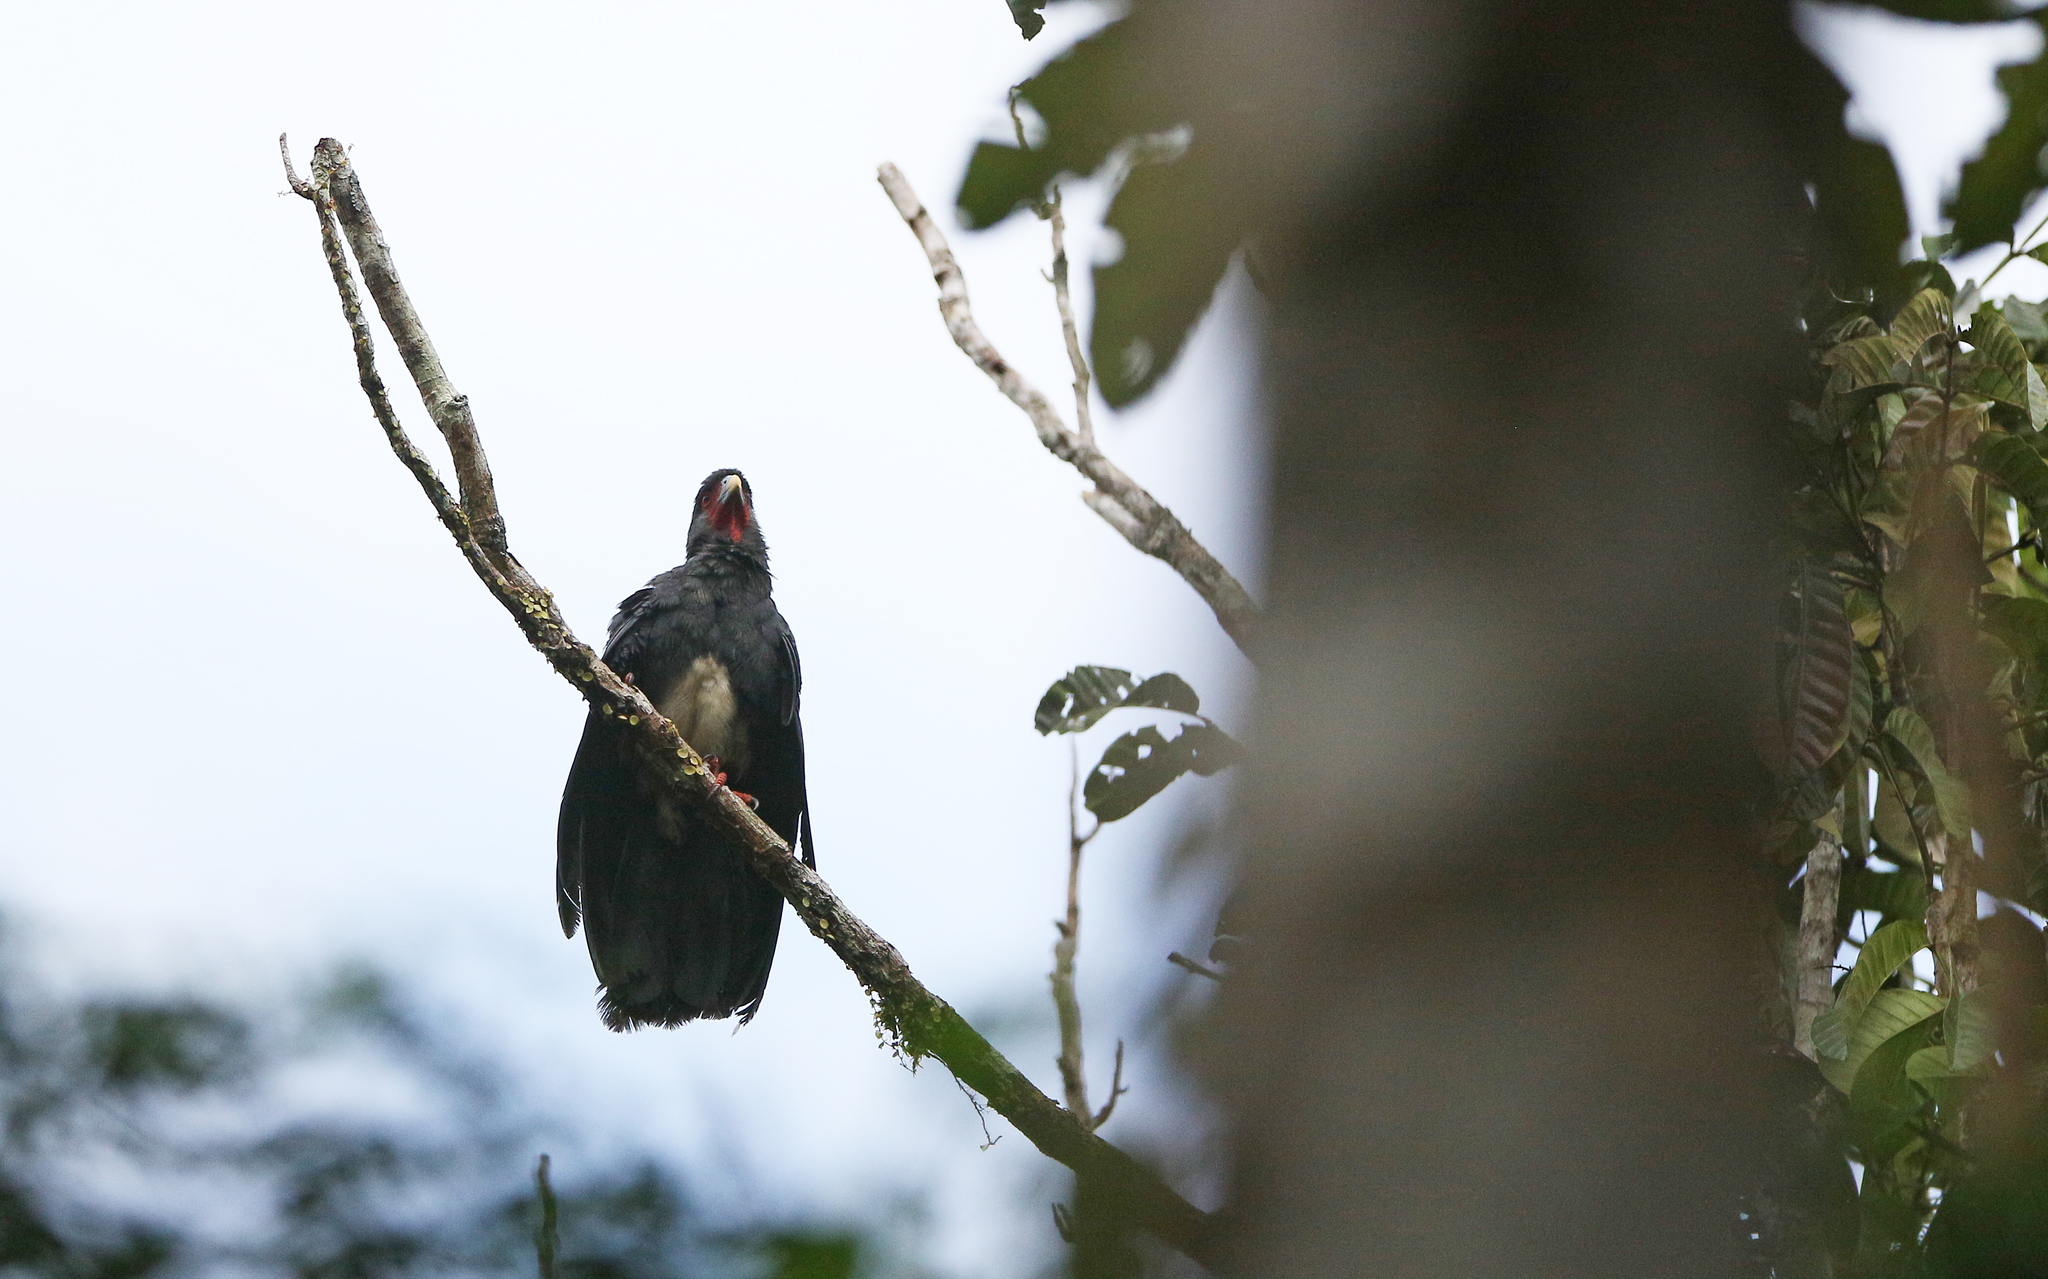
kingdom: Animalia
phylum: Chordata
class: Aves
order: Falconiformes
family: Falconidae
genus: Ibycter
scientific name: Ibycter americanus
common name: Red-throated caracara
